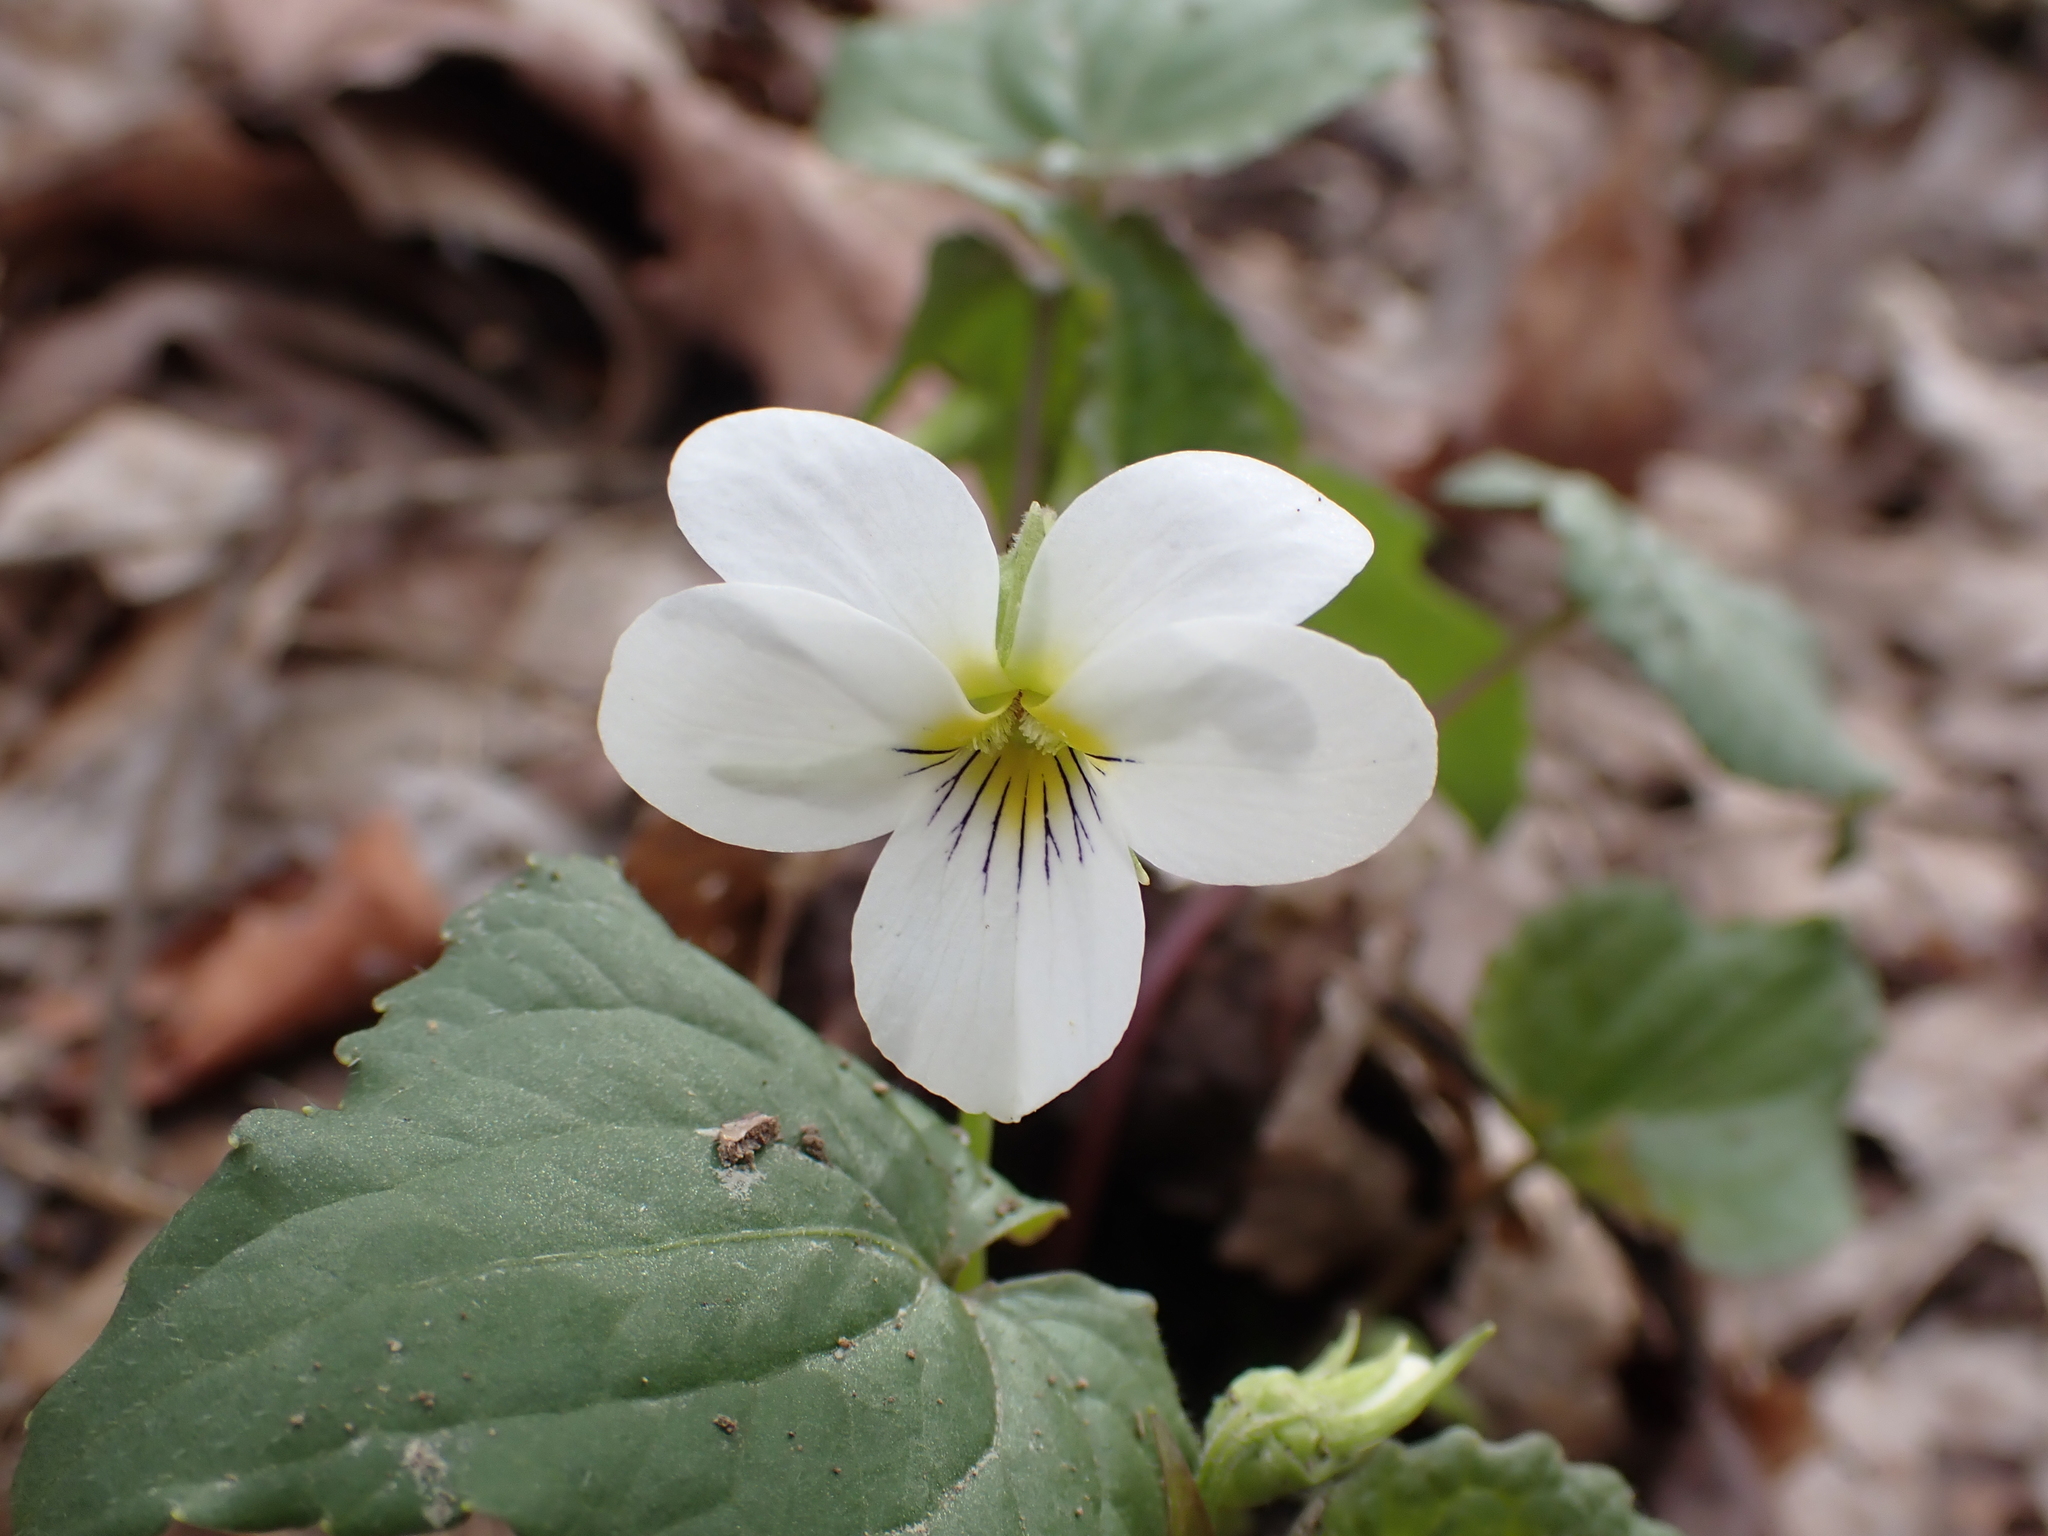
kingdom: Plantae
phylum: Tracheophyta
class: Magnoliopsida
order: Malpighiales
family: Violaceae
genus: Viola
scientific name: Viola canadensis
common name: Canada violet
